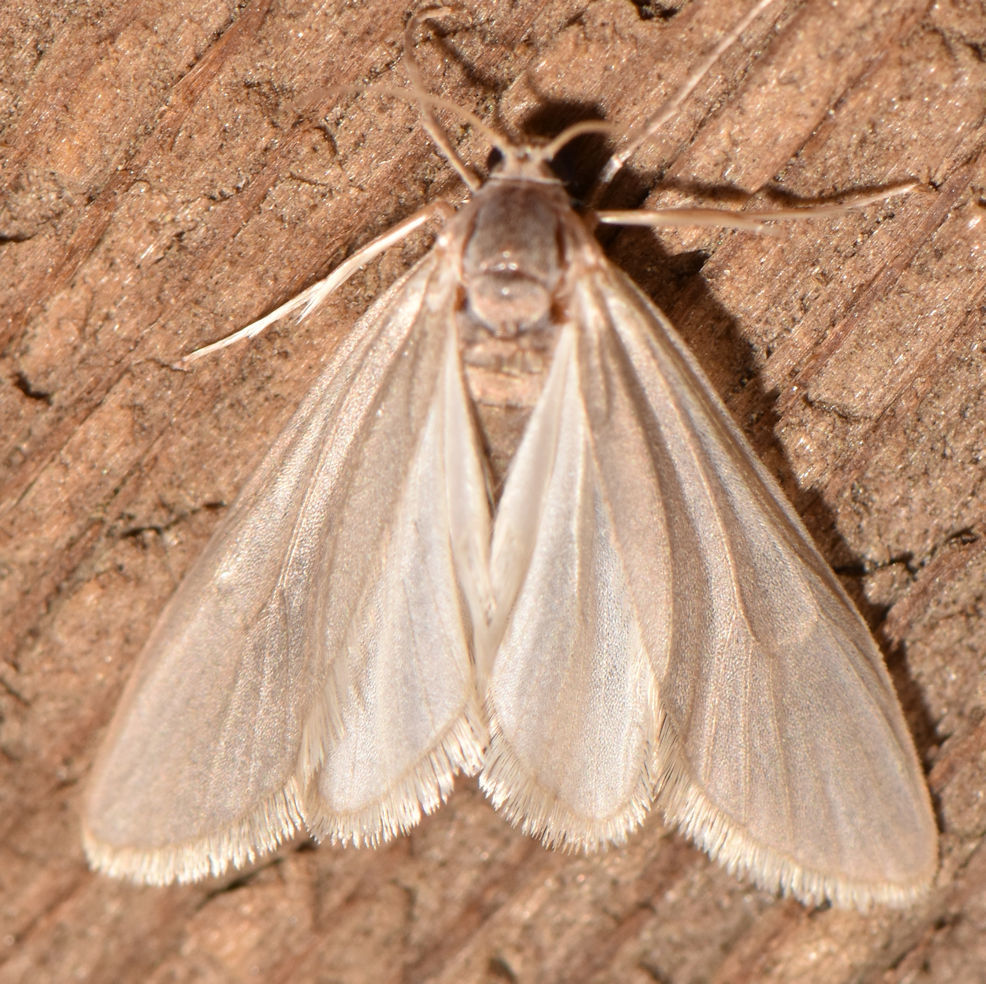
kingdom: Animalia
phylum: Arthropoda
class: Insecta
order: Lepidoptera
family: Crambidae
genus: Acentria
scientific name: Acentria ephemerella
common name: European water moth
